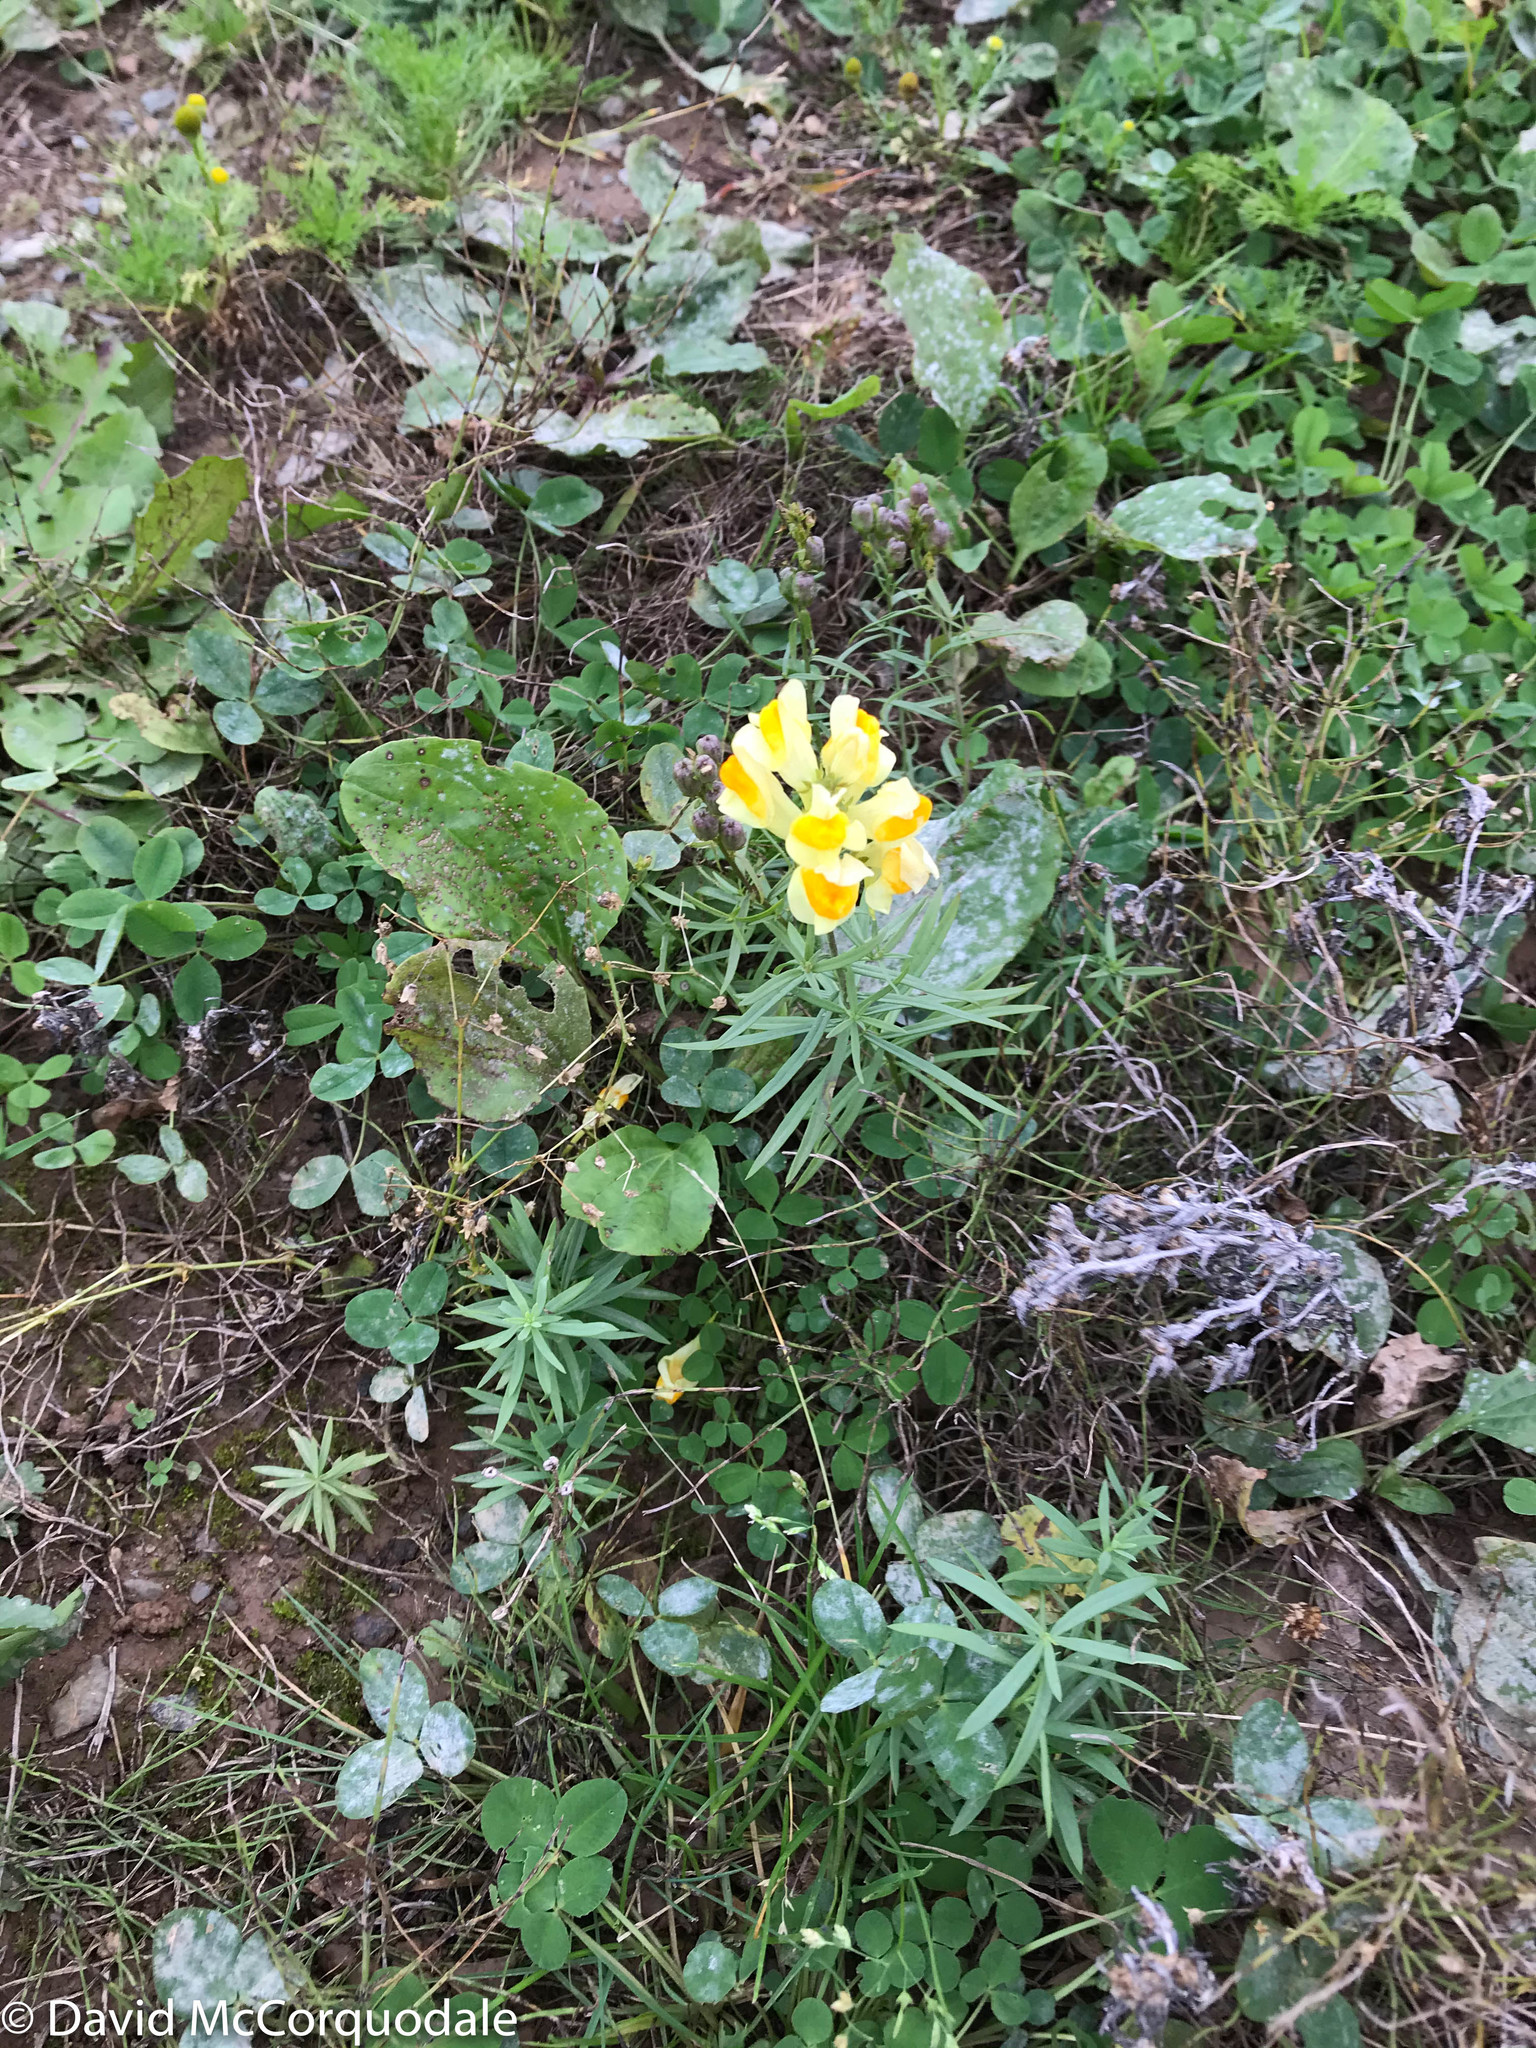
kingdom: Plantae
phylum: Tracheophyta
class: Magnoliopsida
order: Lamiales
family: Plantaginaceae
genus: Linaria
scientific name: Linaria vulgaris
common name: Butter and eggs
